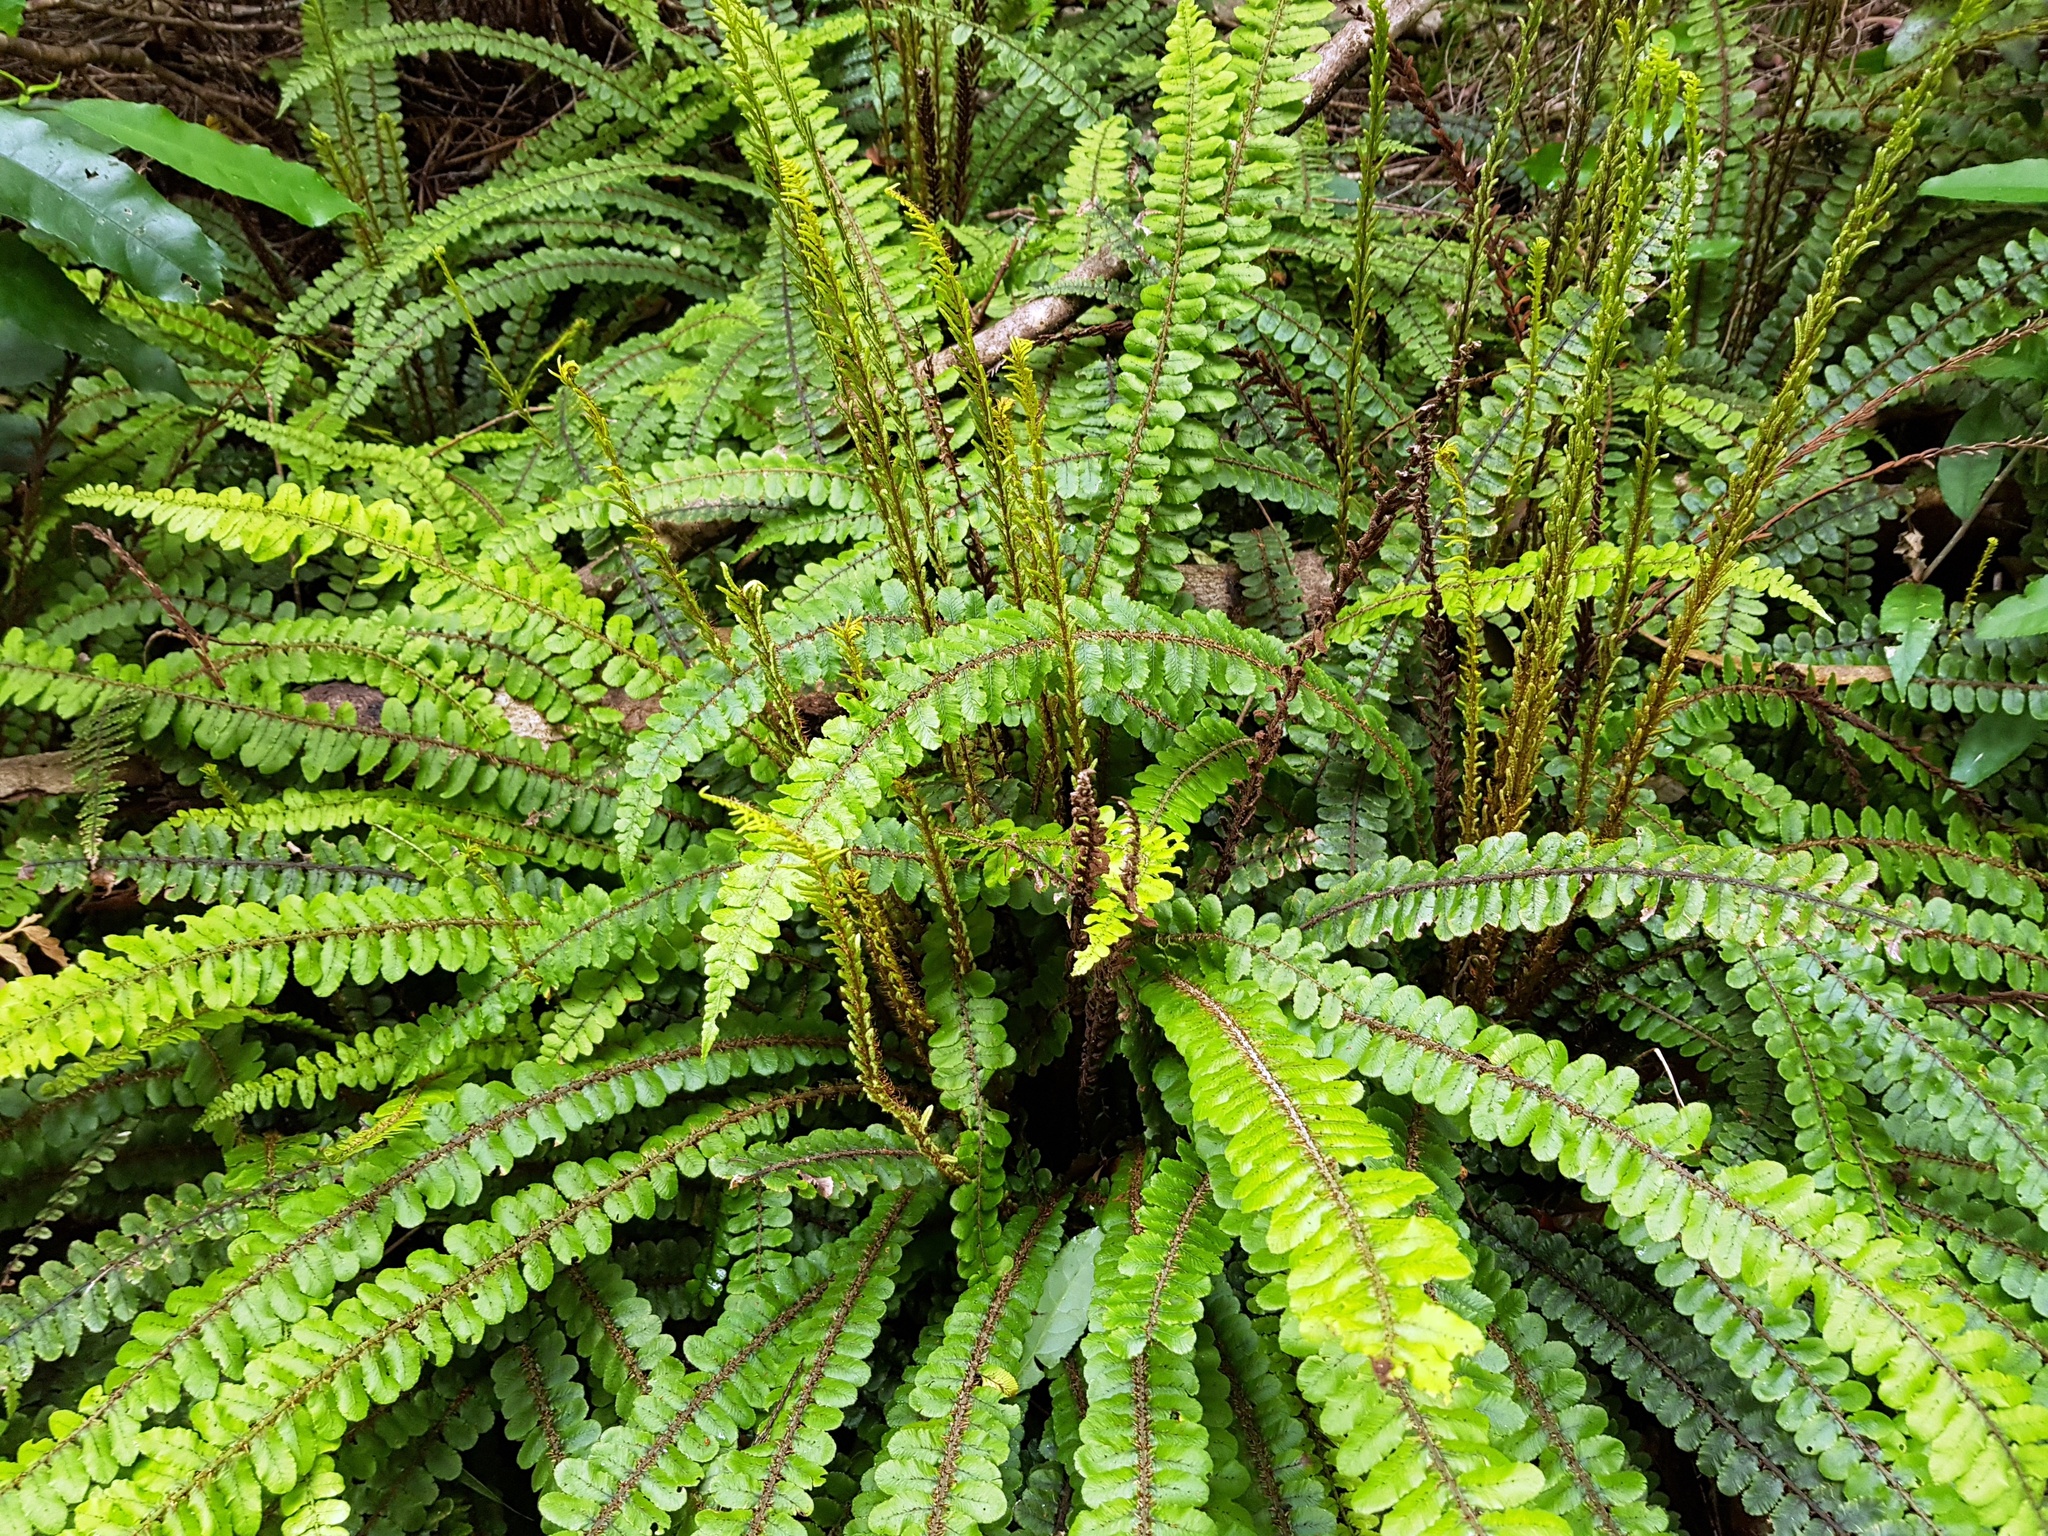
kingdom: Plantae
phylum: Tracheophyta
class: Polypodiopsida
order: Polypodiales
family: Blechnaceae
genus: Cranfillia
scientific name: Cranfillia fluviatilis
